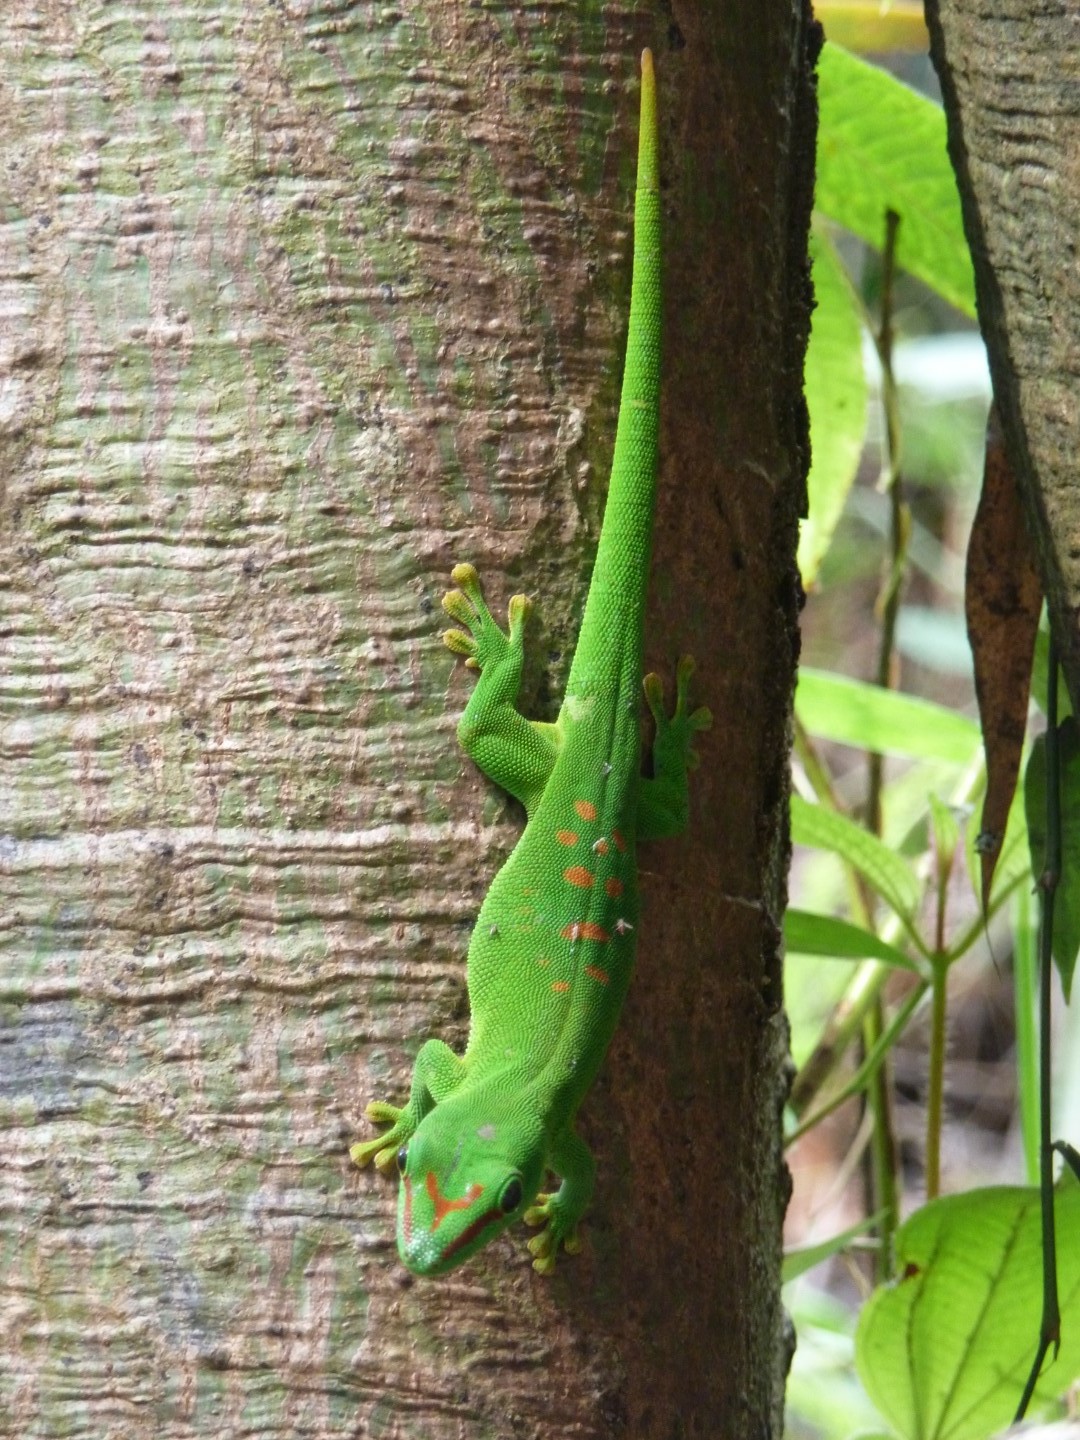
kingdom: Animalia
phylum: Chordata
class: Squamata
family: Gekkonidae
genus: Phelsuma
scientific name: Phelsuma grandis
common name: Madagascar giant day gecko
